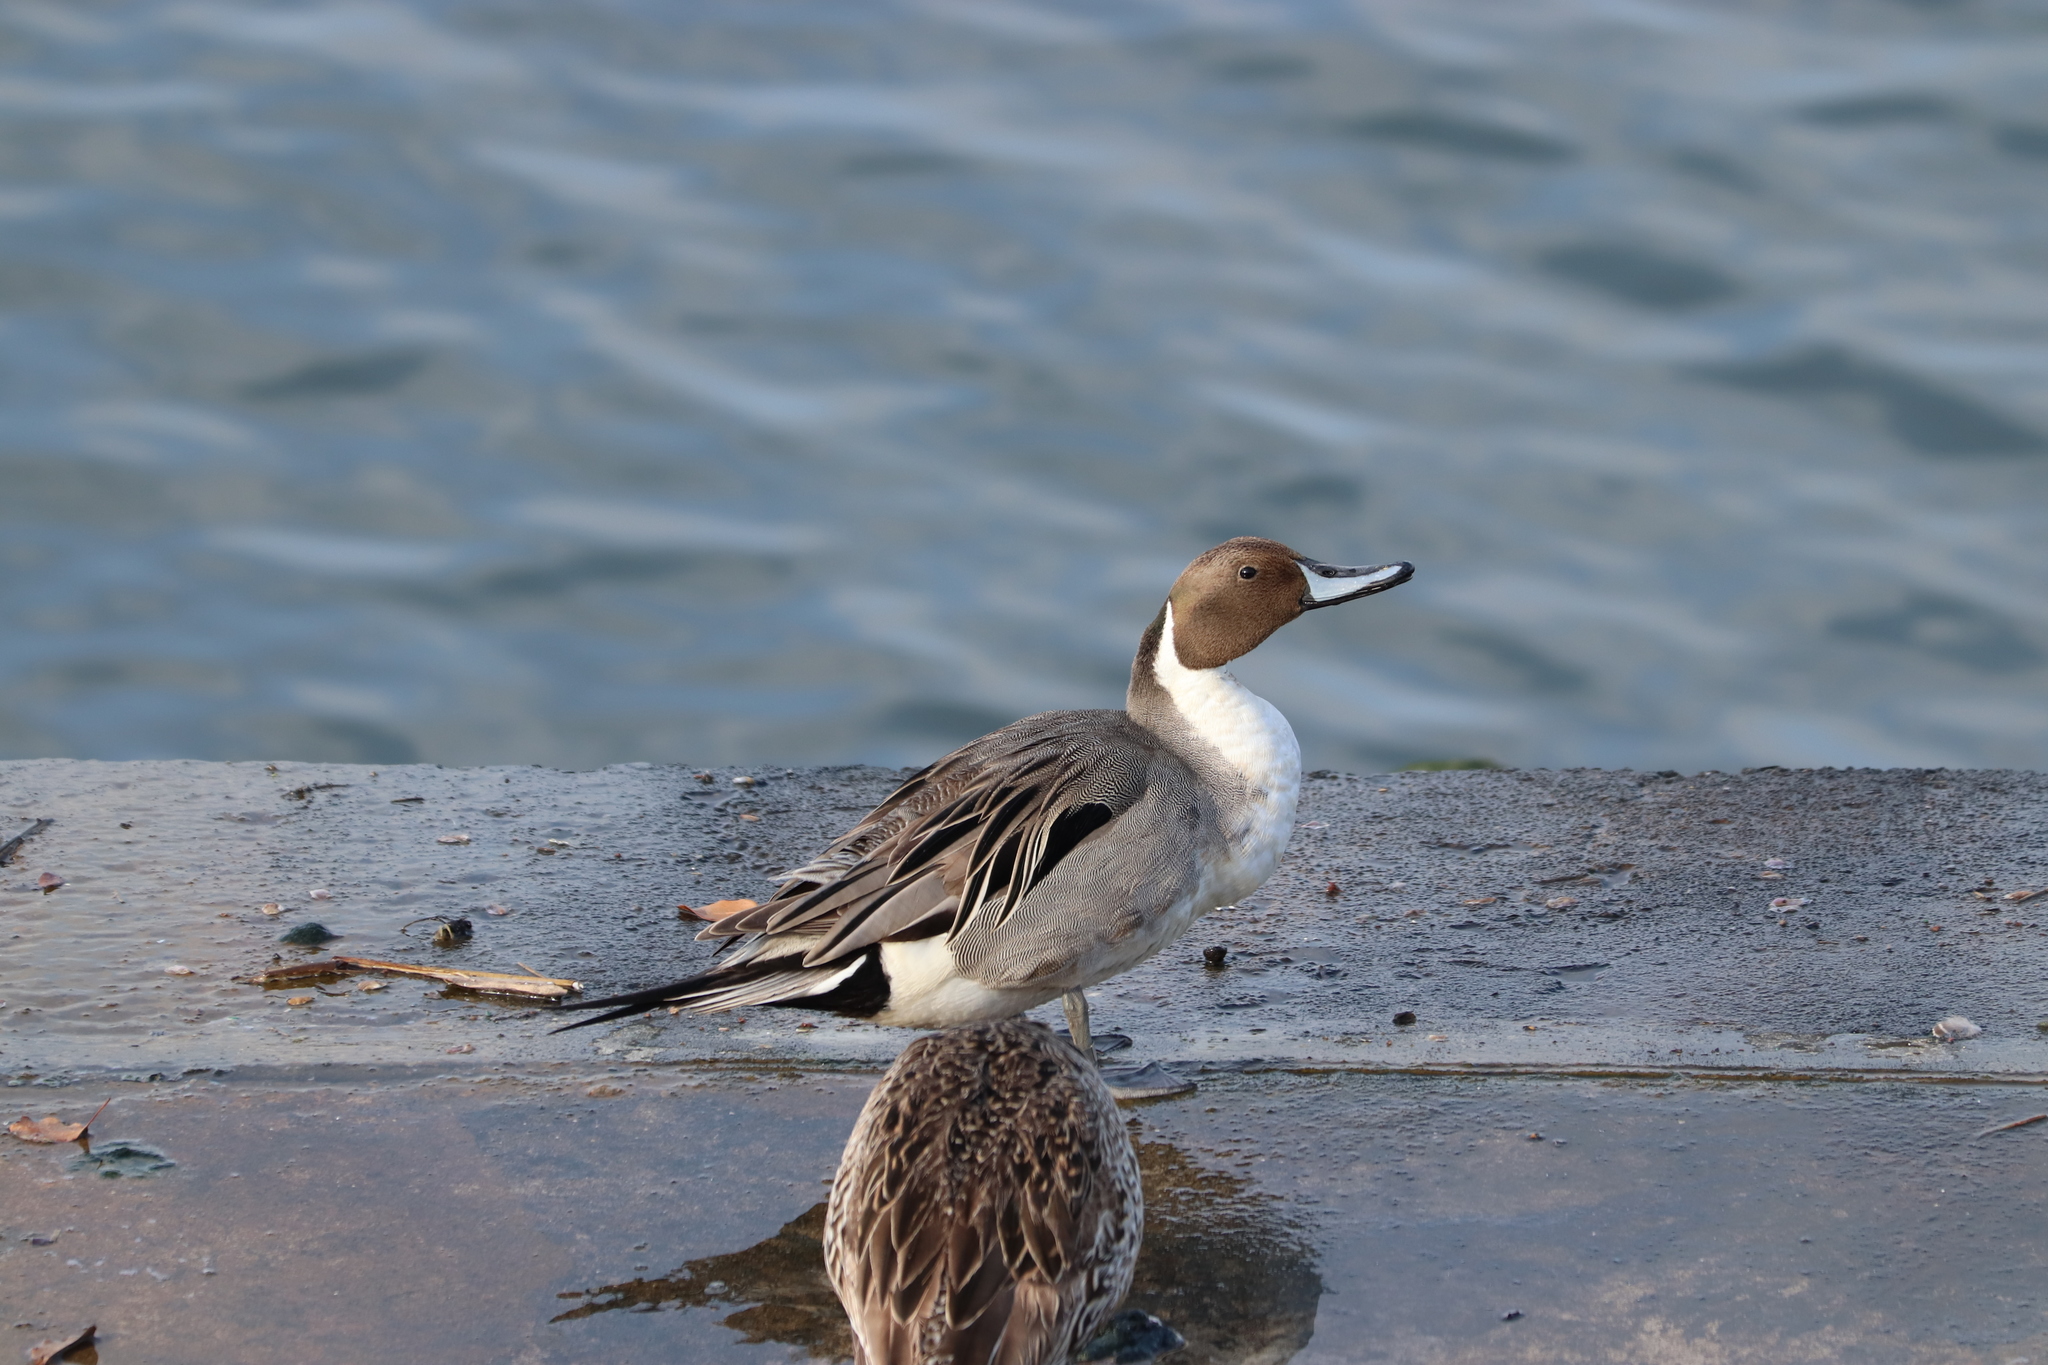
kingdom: Animalia
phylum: Chordata
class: Aves
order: Anseriformes
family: Anatidae
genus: Anas
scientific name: Anas acuta
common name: Northern pintail
